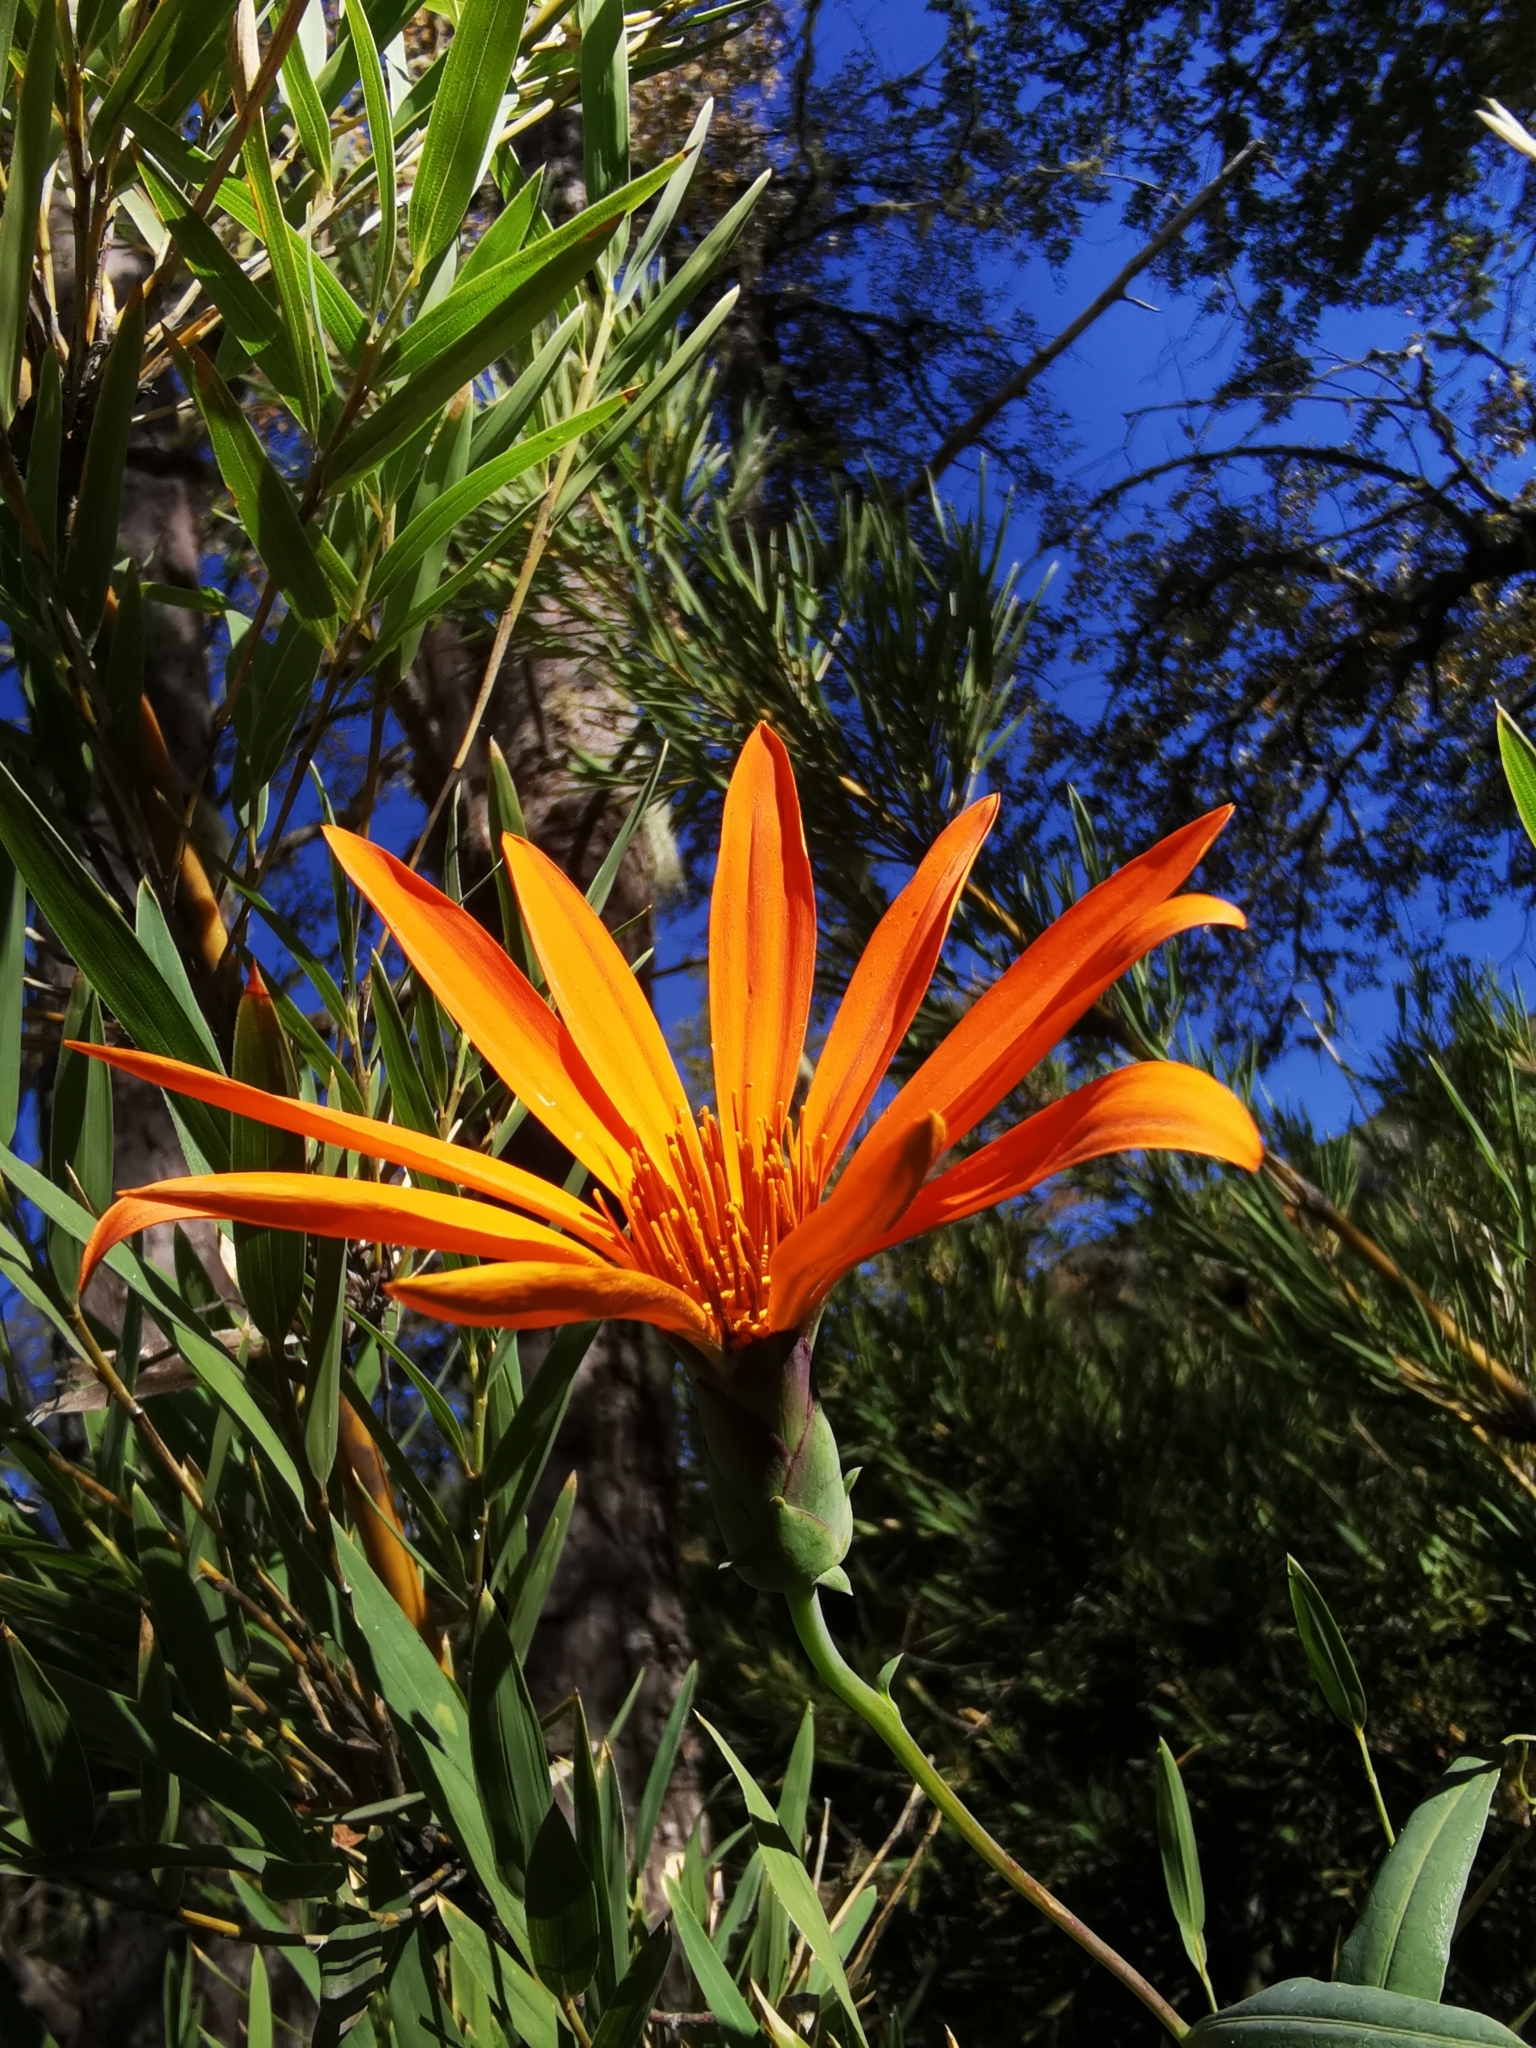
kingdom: Plantae
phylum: Tracheophyta
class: Magnoliopsida
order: Asterales
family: Asteraceae
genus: Mutisia
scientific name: Mutisia decurrens
